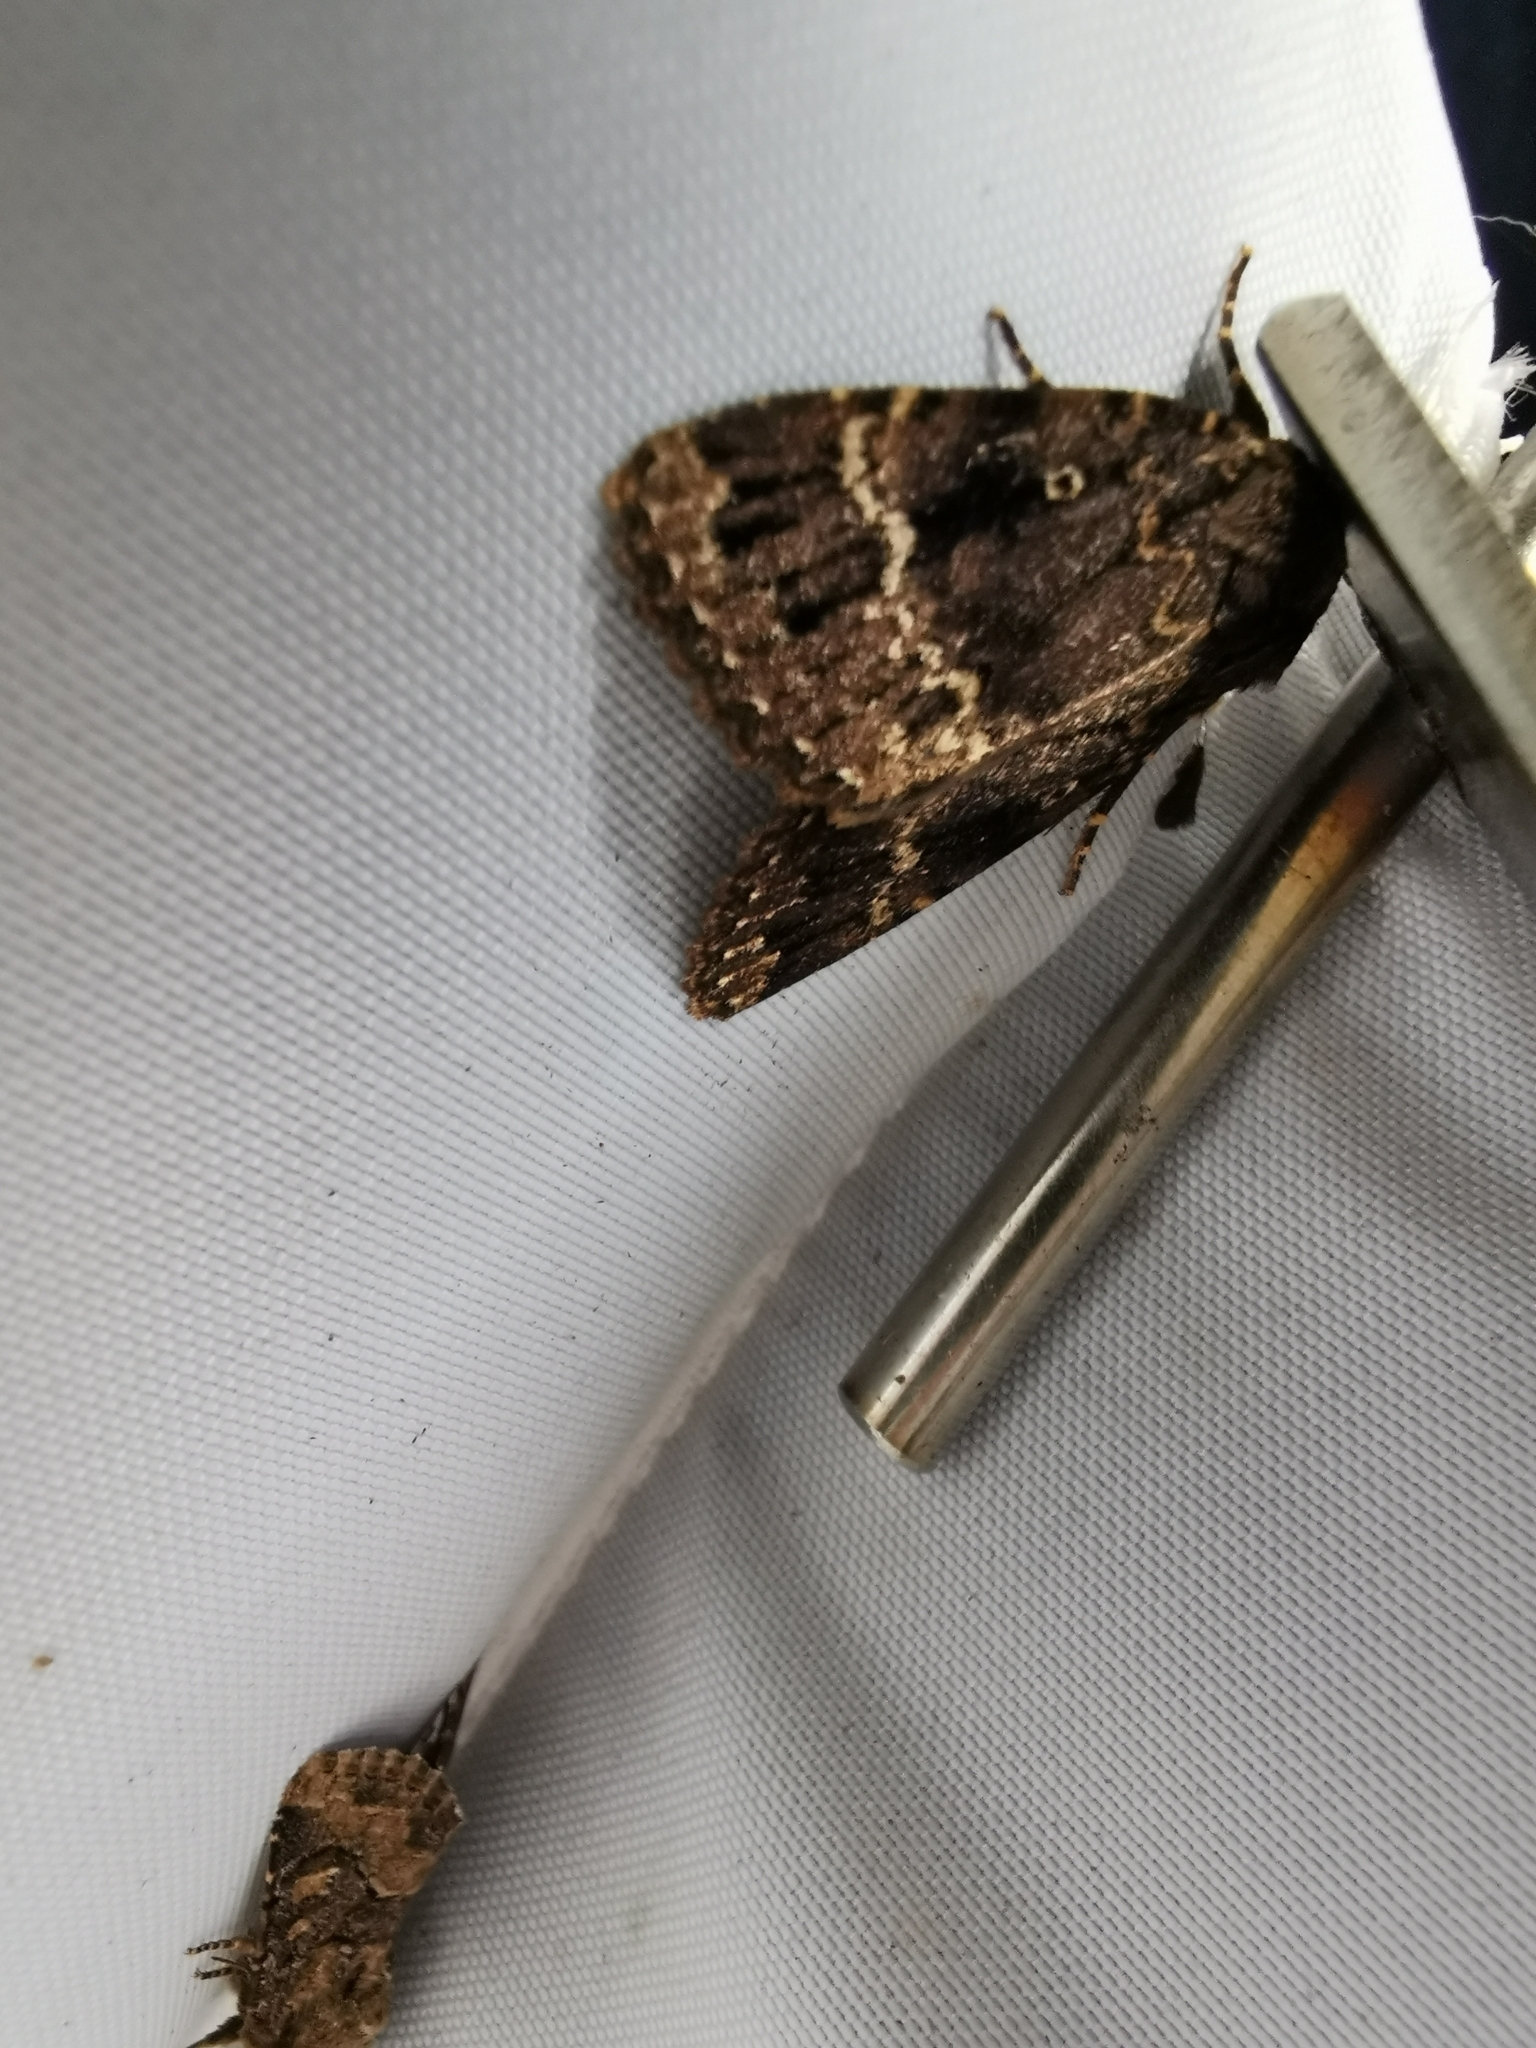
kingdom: Animalia
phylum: Arthropoda
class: Insecta
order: Lepidoptera
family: Noctuidae
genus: Amphipyra
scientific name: Amphipyra pyramidea
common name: Copper underwing
